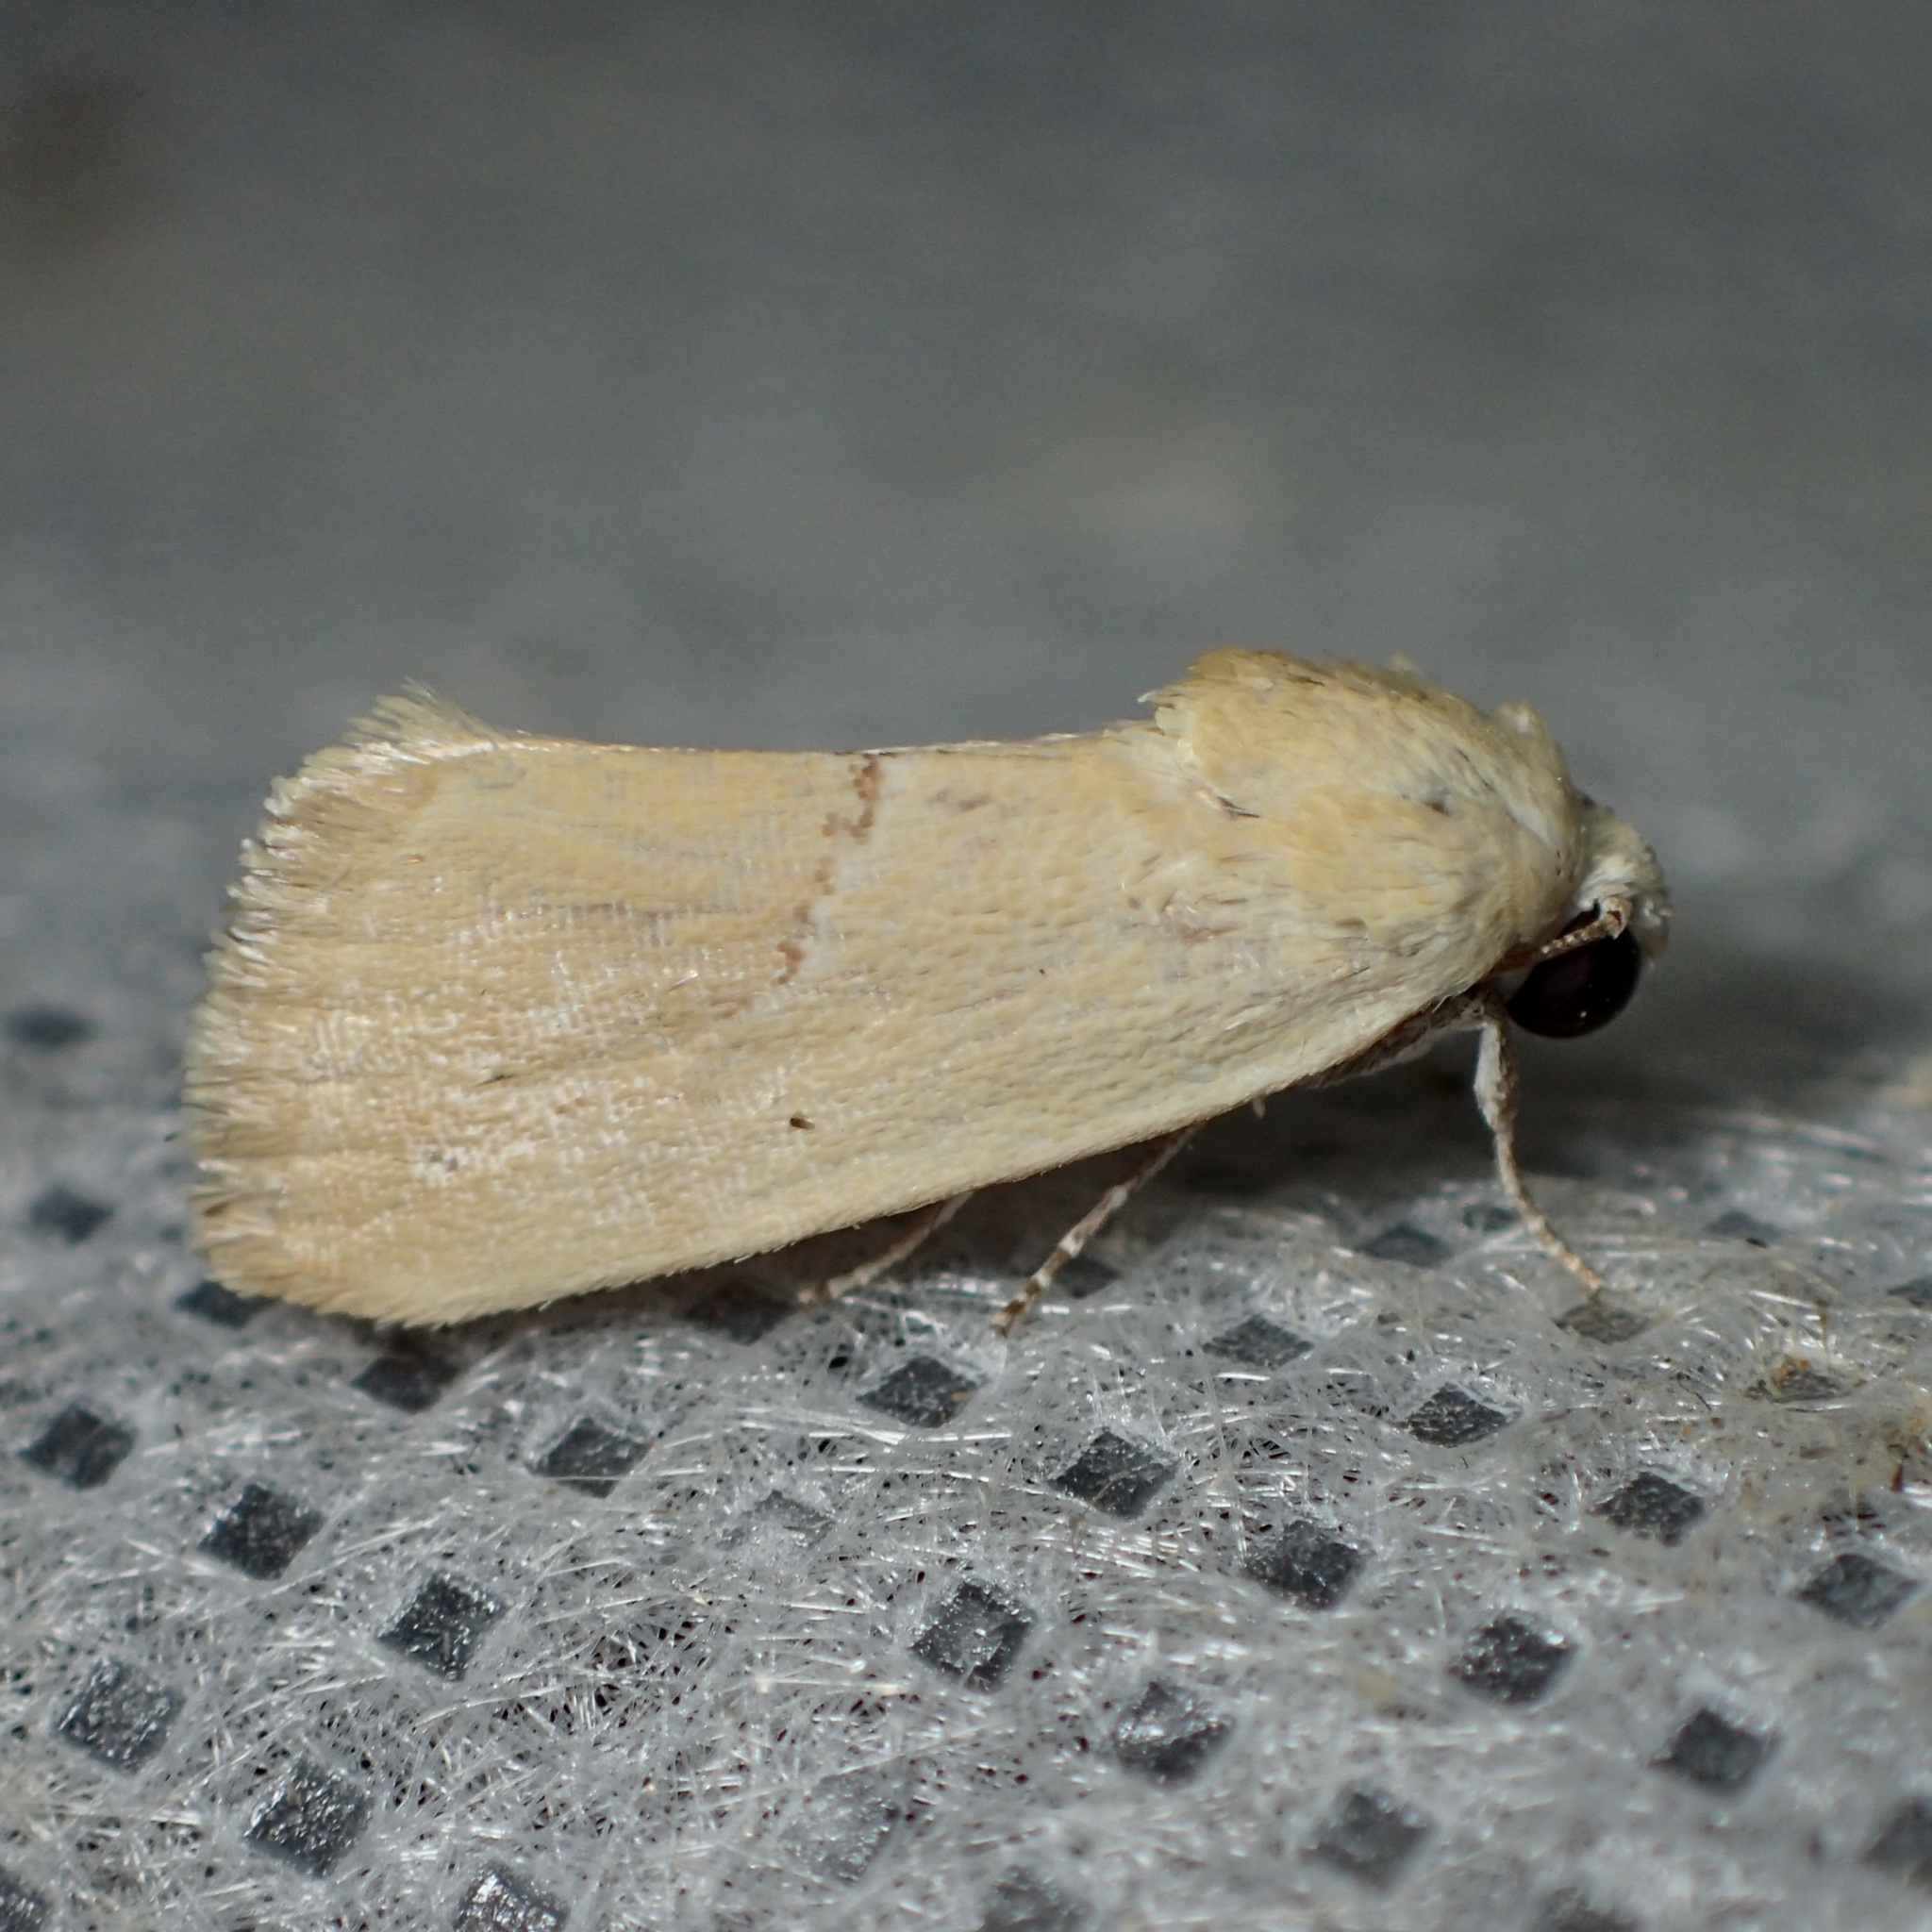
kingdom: Animalia
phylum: Arthropoda
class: Insecta
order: Lepidoptera
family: Noctuidae
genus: Ponometia
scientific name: Ponometia venustula
